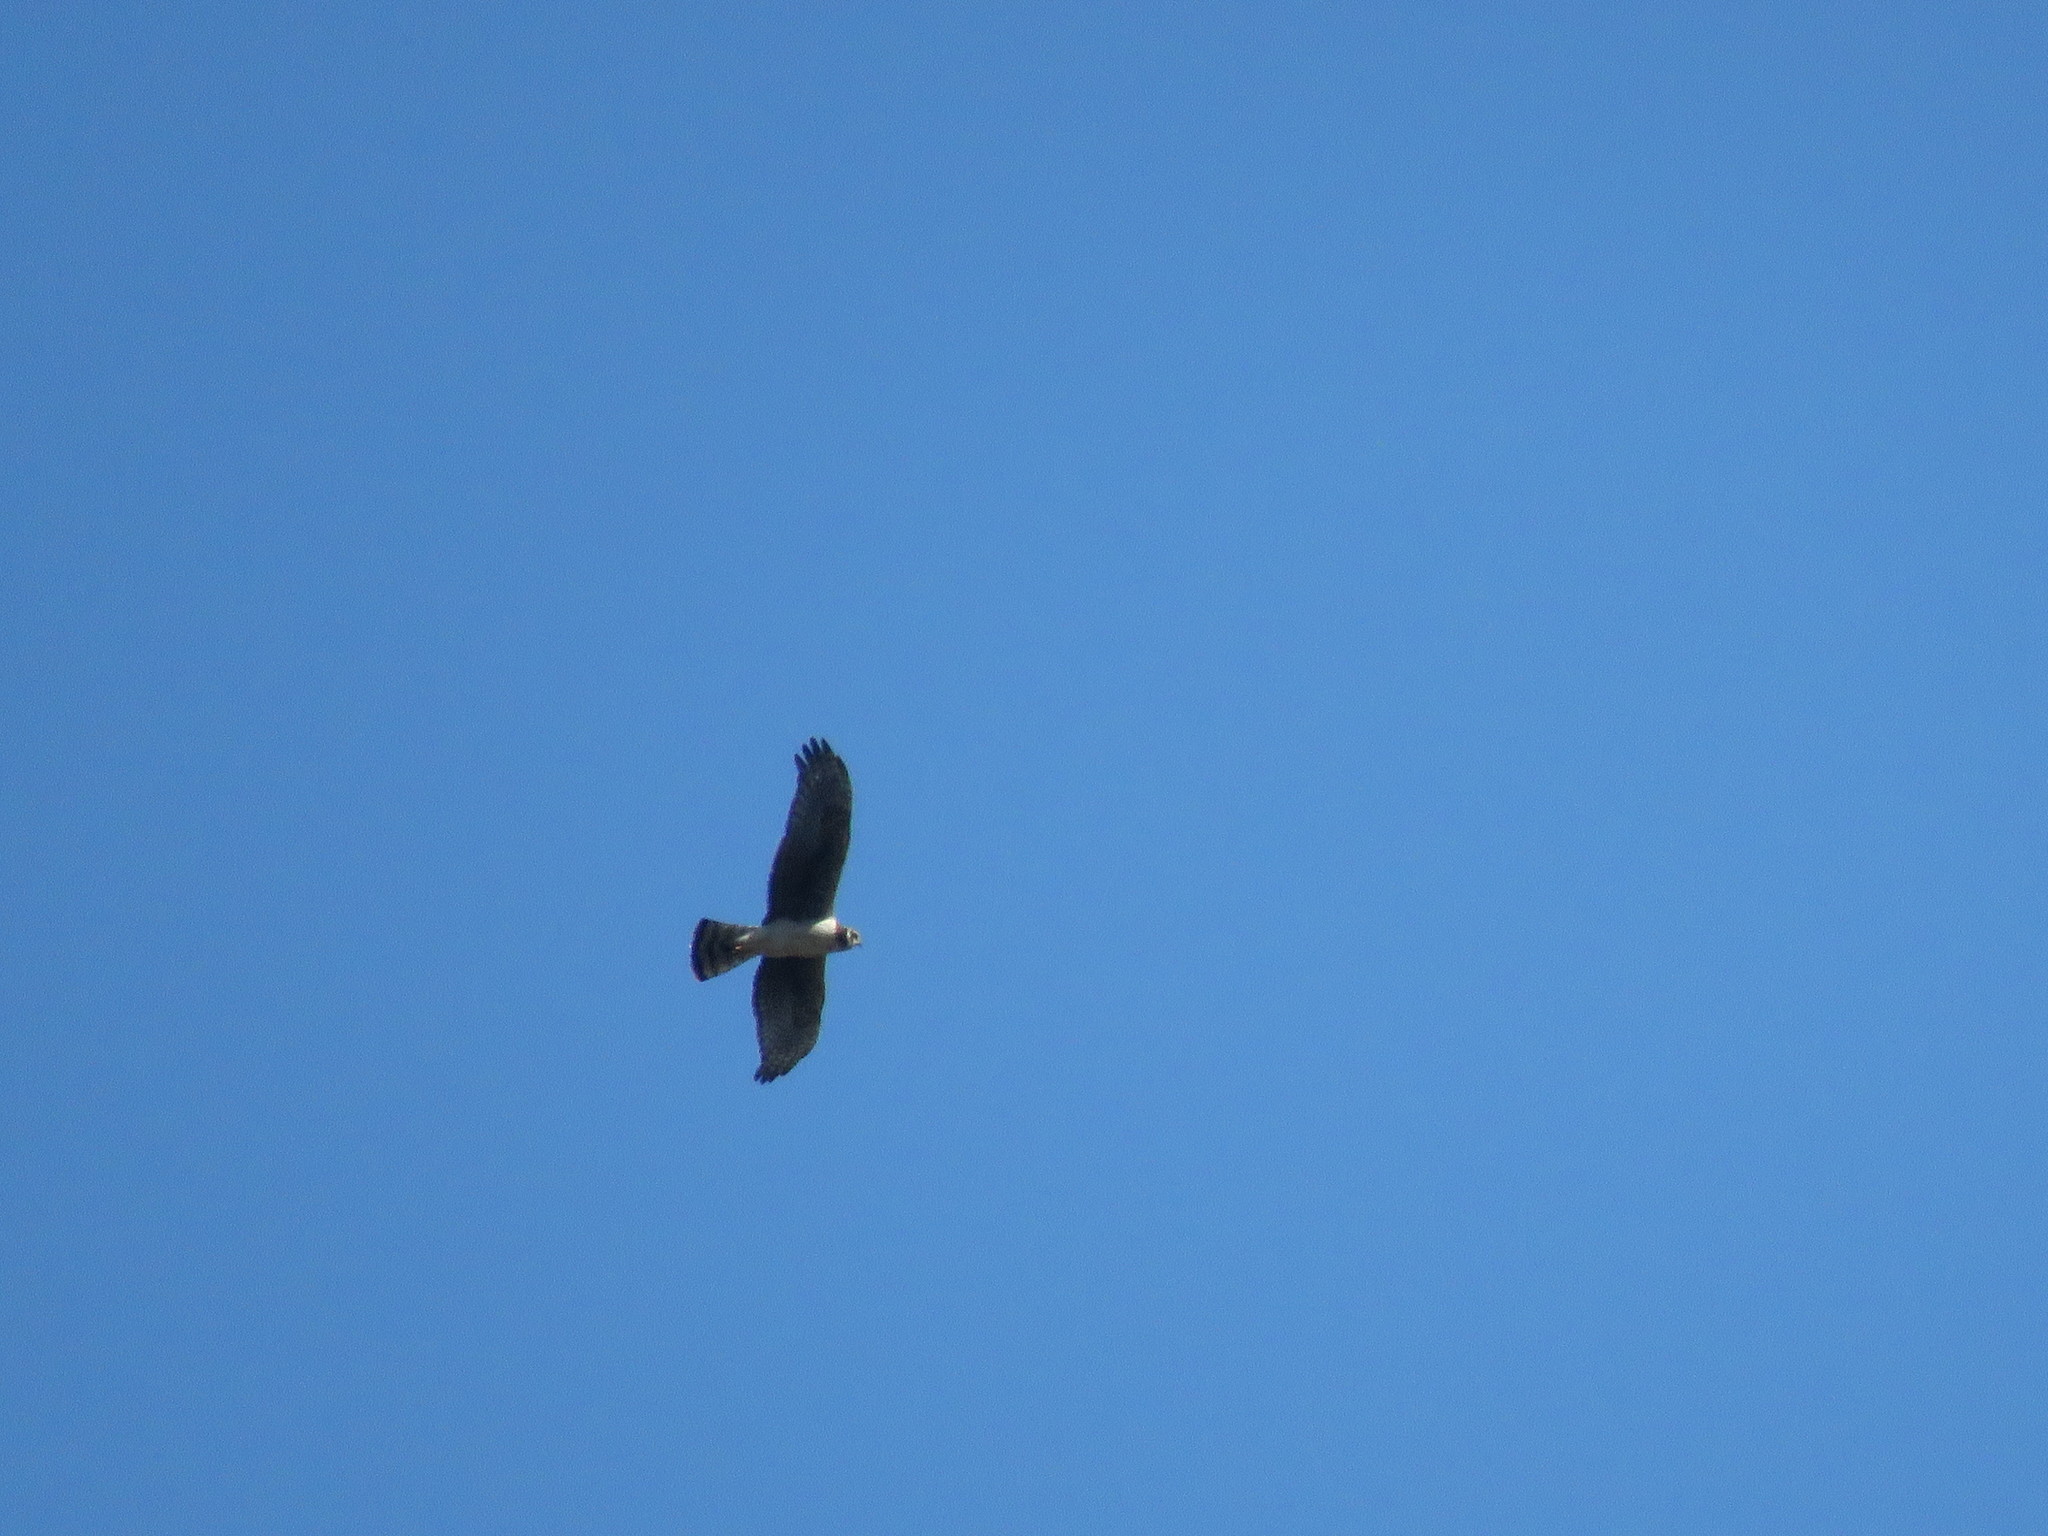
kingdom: Animalia
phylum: Chordata
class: Aves
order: Accipitriformes
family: Accipitridae
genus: Circus
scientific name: Circus buffoni
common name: Long-winged harrier
